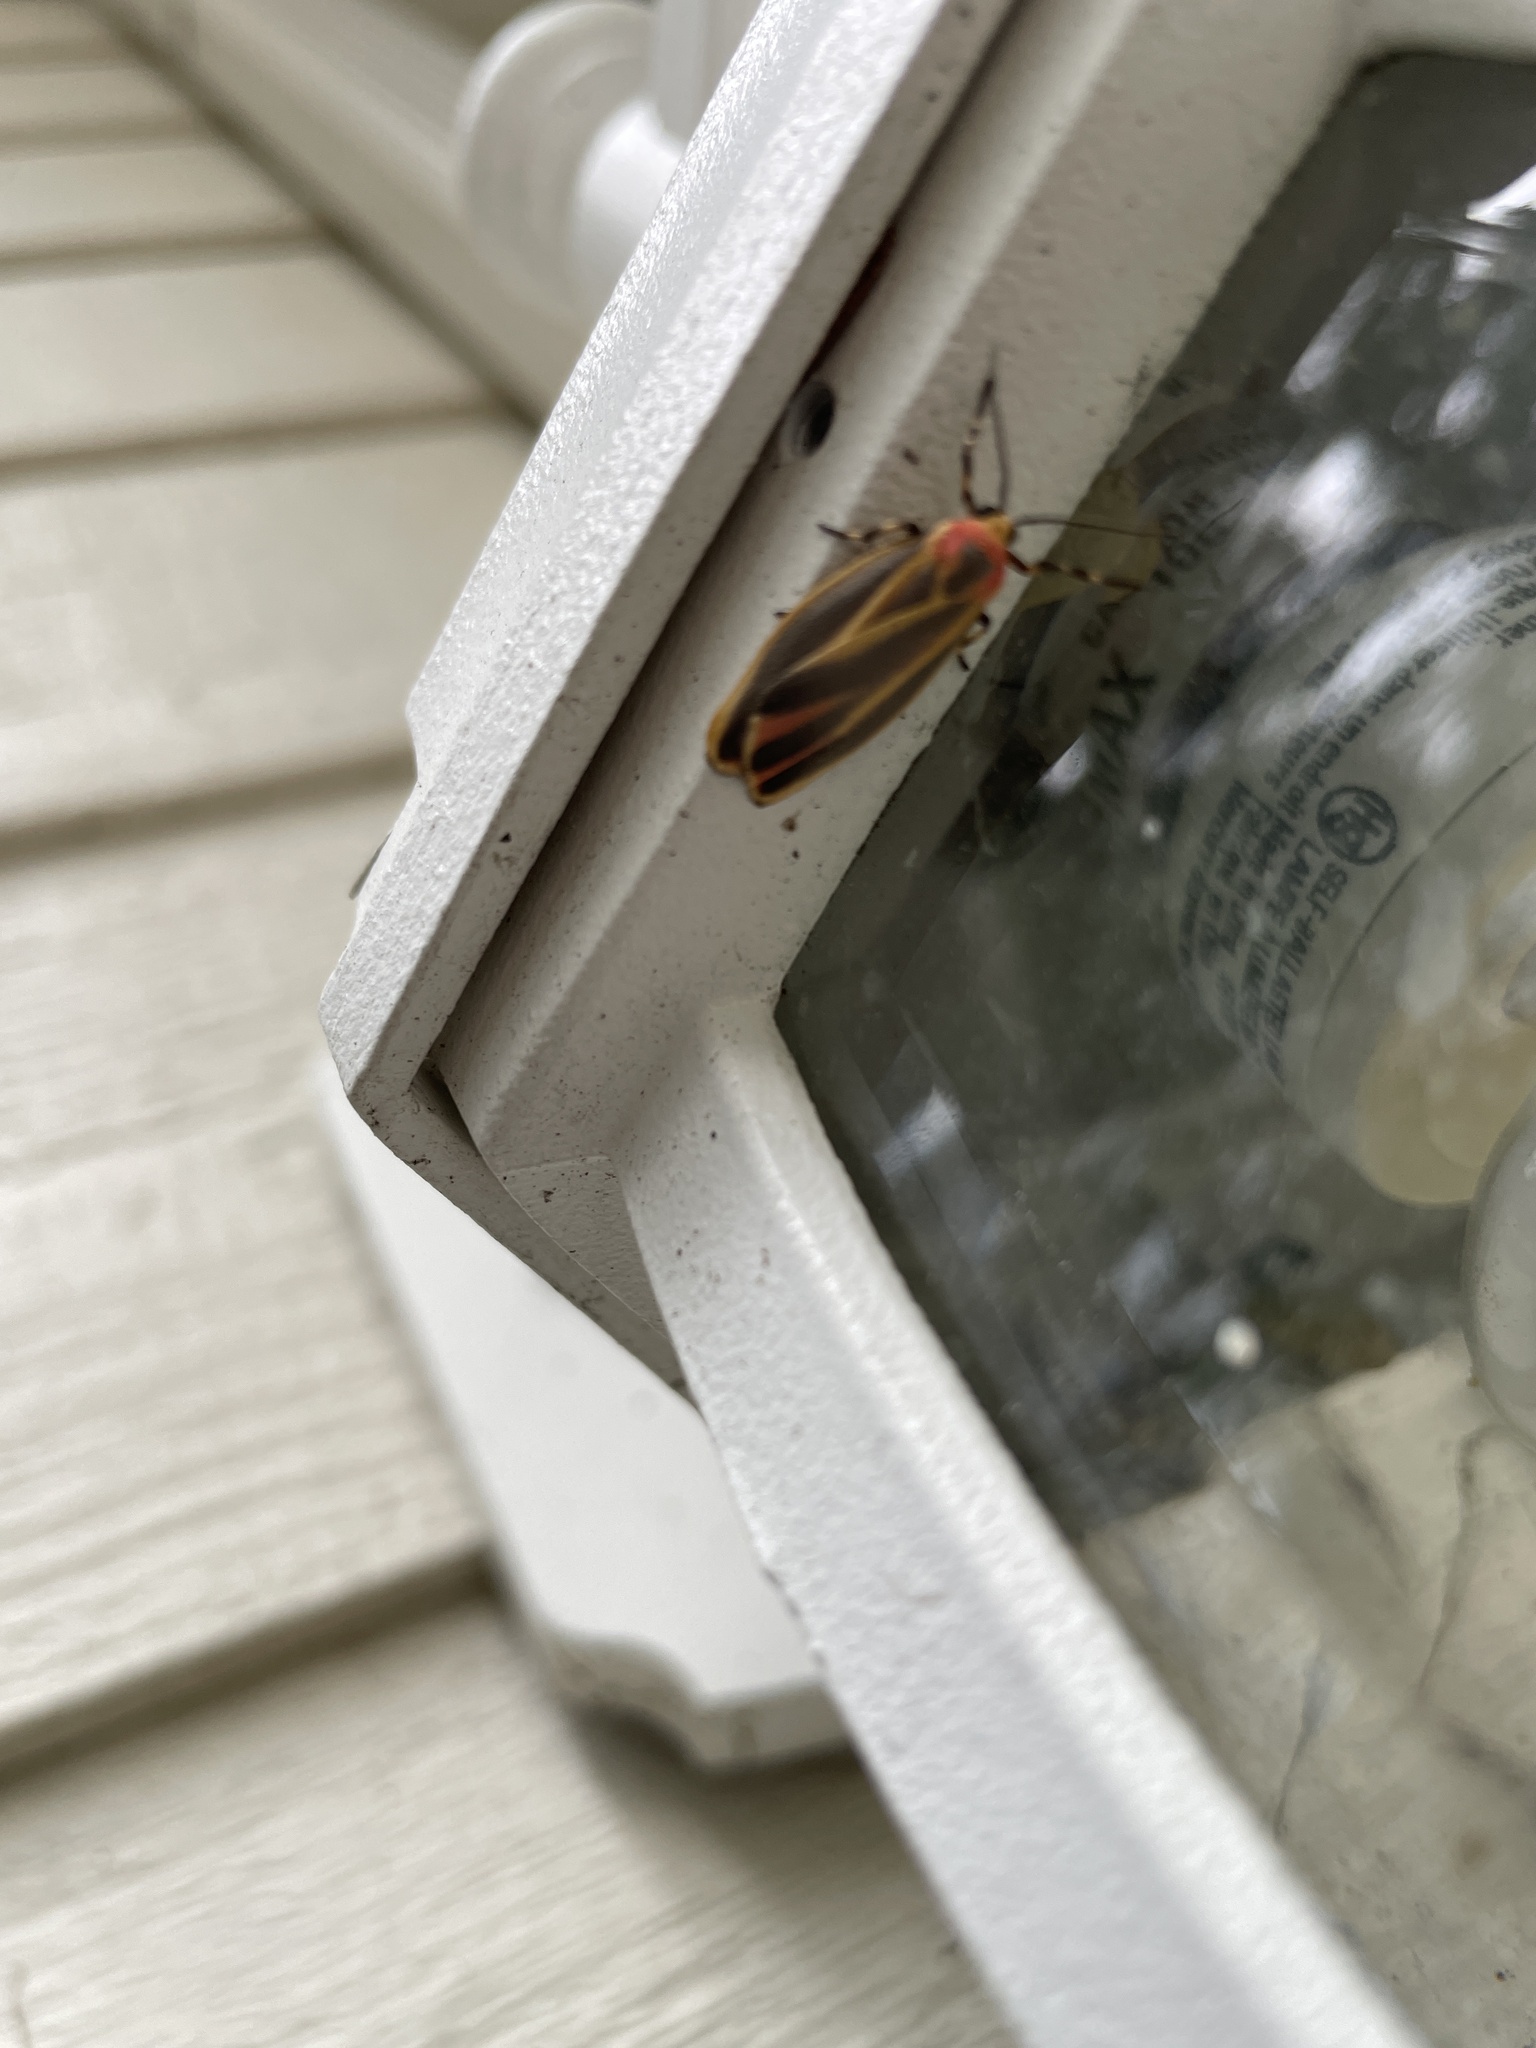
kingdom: Animalia
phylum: Arthropoda
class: Insecta
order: Lepidoptera
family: Erebidae
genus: Hypoprepia
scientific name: Hypoprepia fucosa
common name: Painted lichen moth
